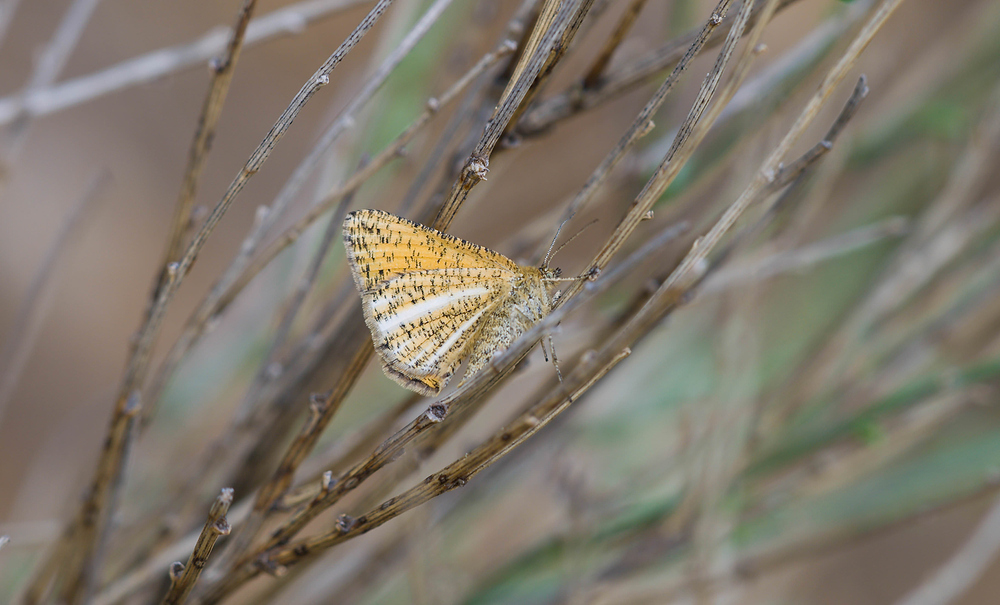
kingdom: Animalia
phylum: Arthropoda
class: Insecta
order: Lepidoptera
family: Geometridae
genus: Isturgia
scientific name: Isturgia limbaria
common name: Frosted yellow
